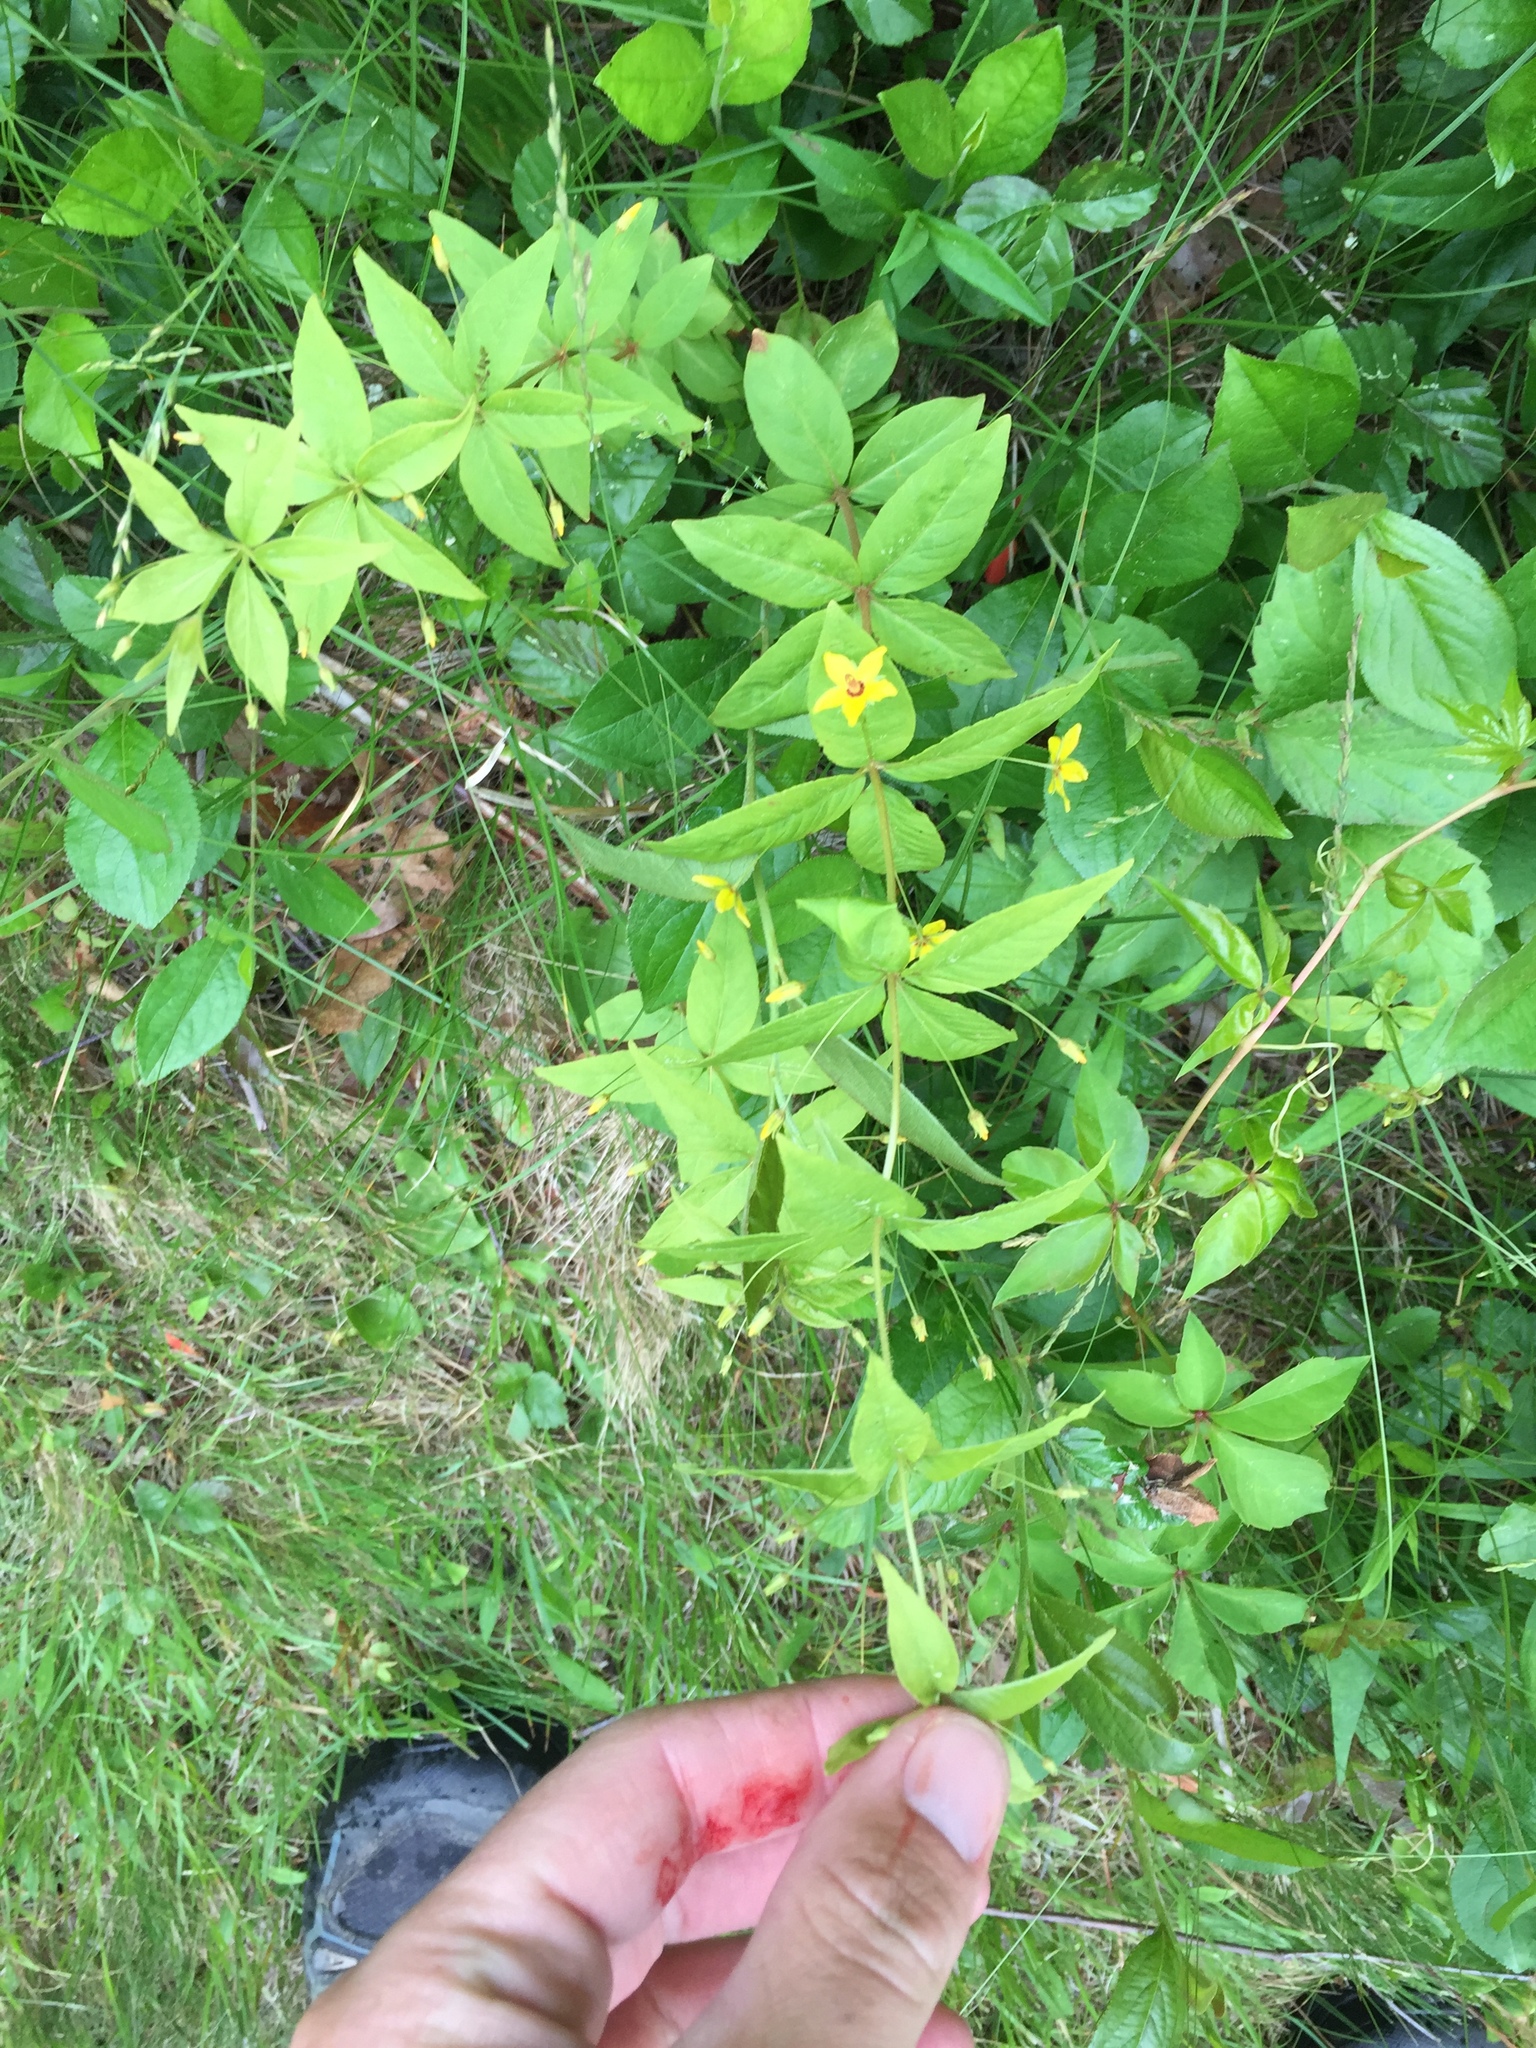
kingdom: Plantae
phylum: Tracheophyta
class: Magnoliopsida
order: Ericales
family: Primulaceae
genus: Lysimachia
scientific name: Lysimachia quadrifolia
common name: Whorled loosestrife
